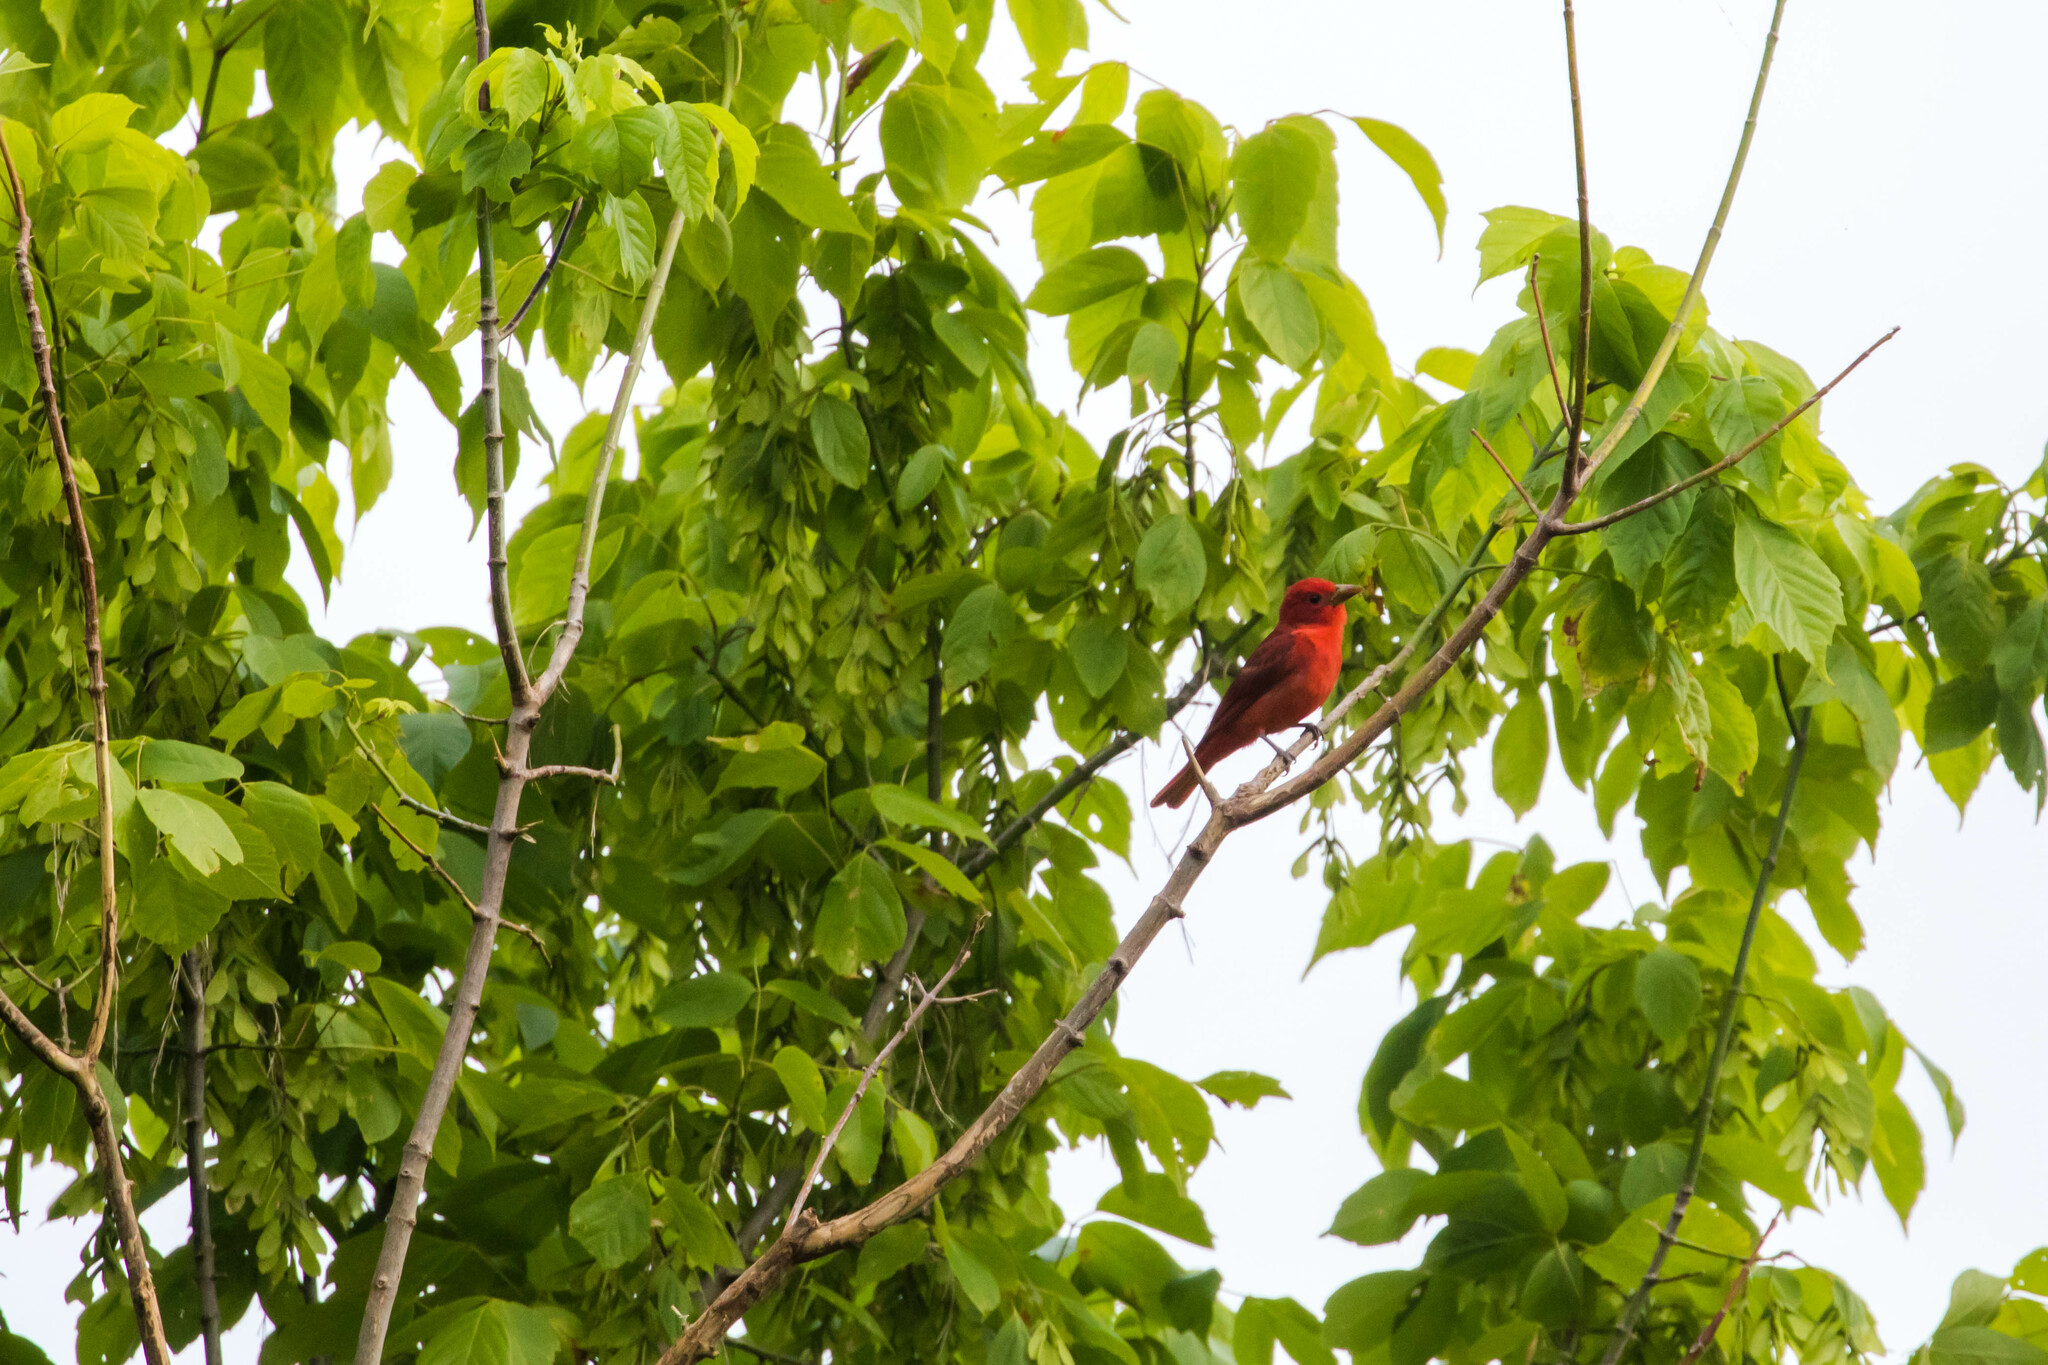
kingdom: Animalia
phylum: Chordata
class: Aves
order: Passeriformes
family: Cardinalidae
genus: Piranga
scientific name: Piranga rubra
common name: Summer tanager
